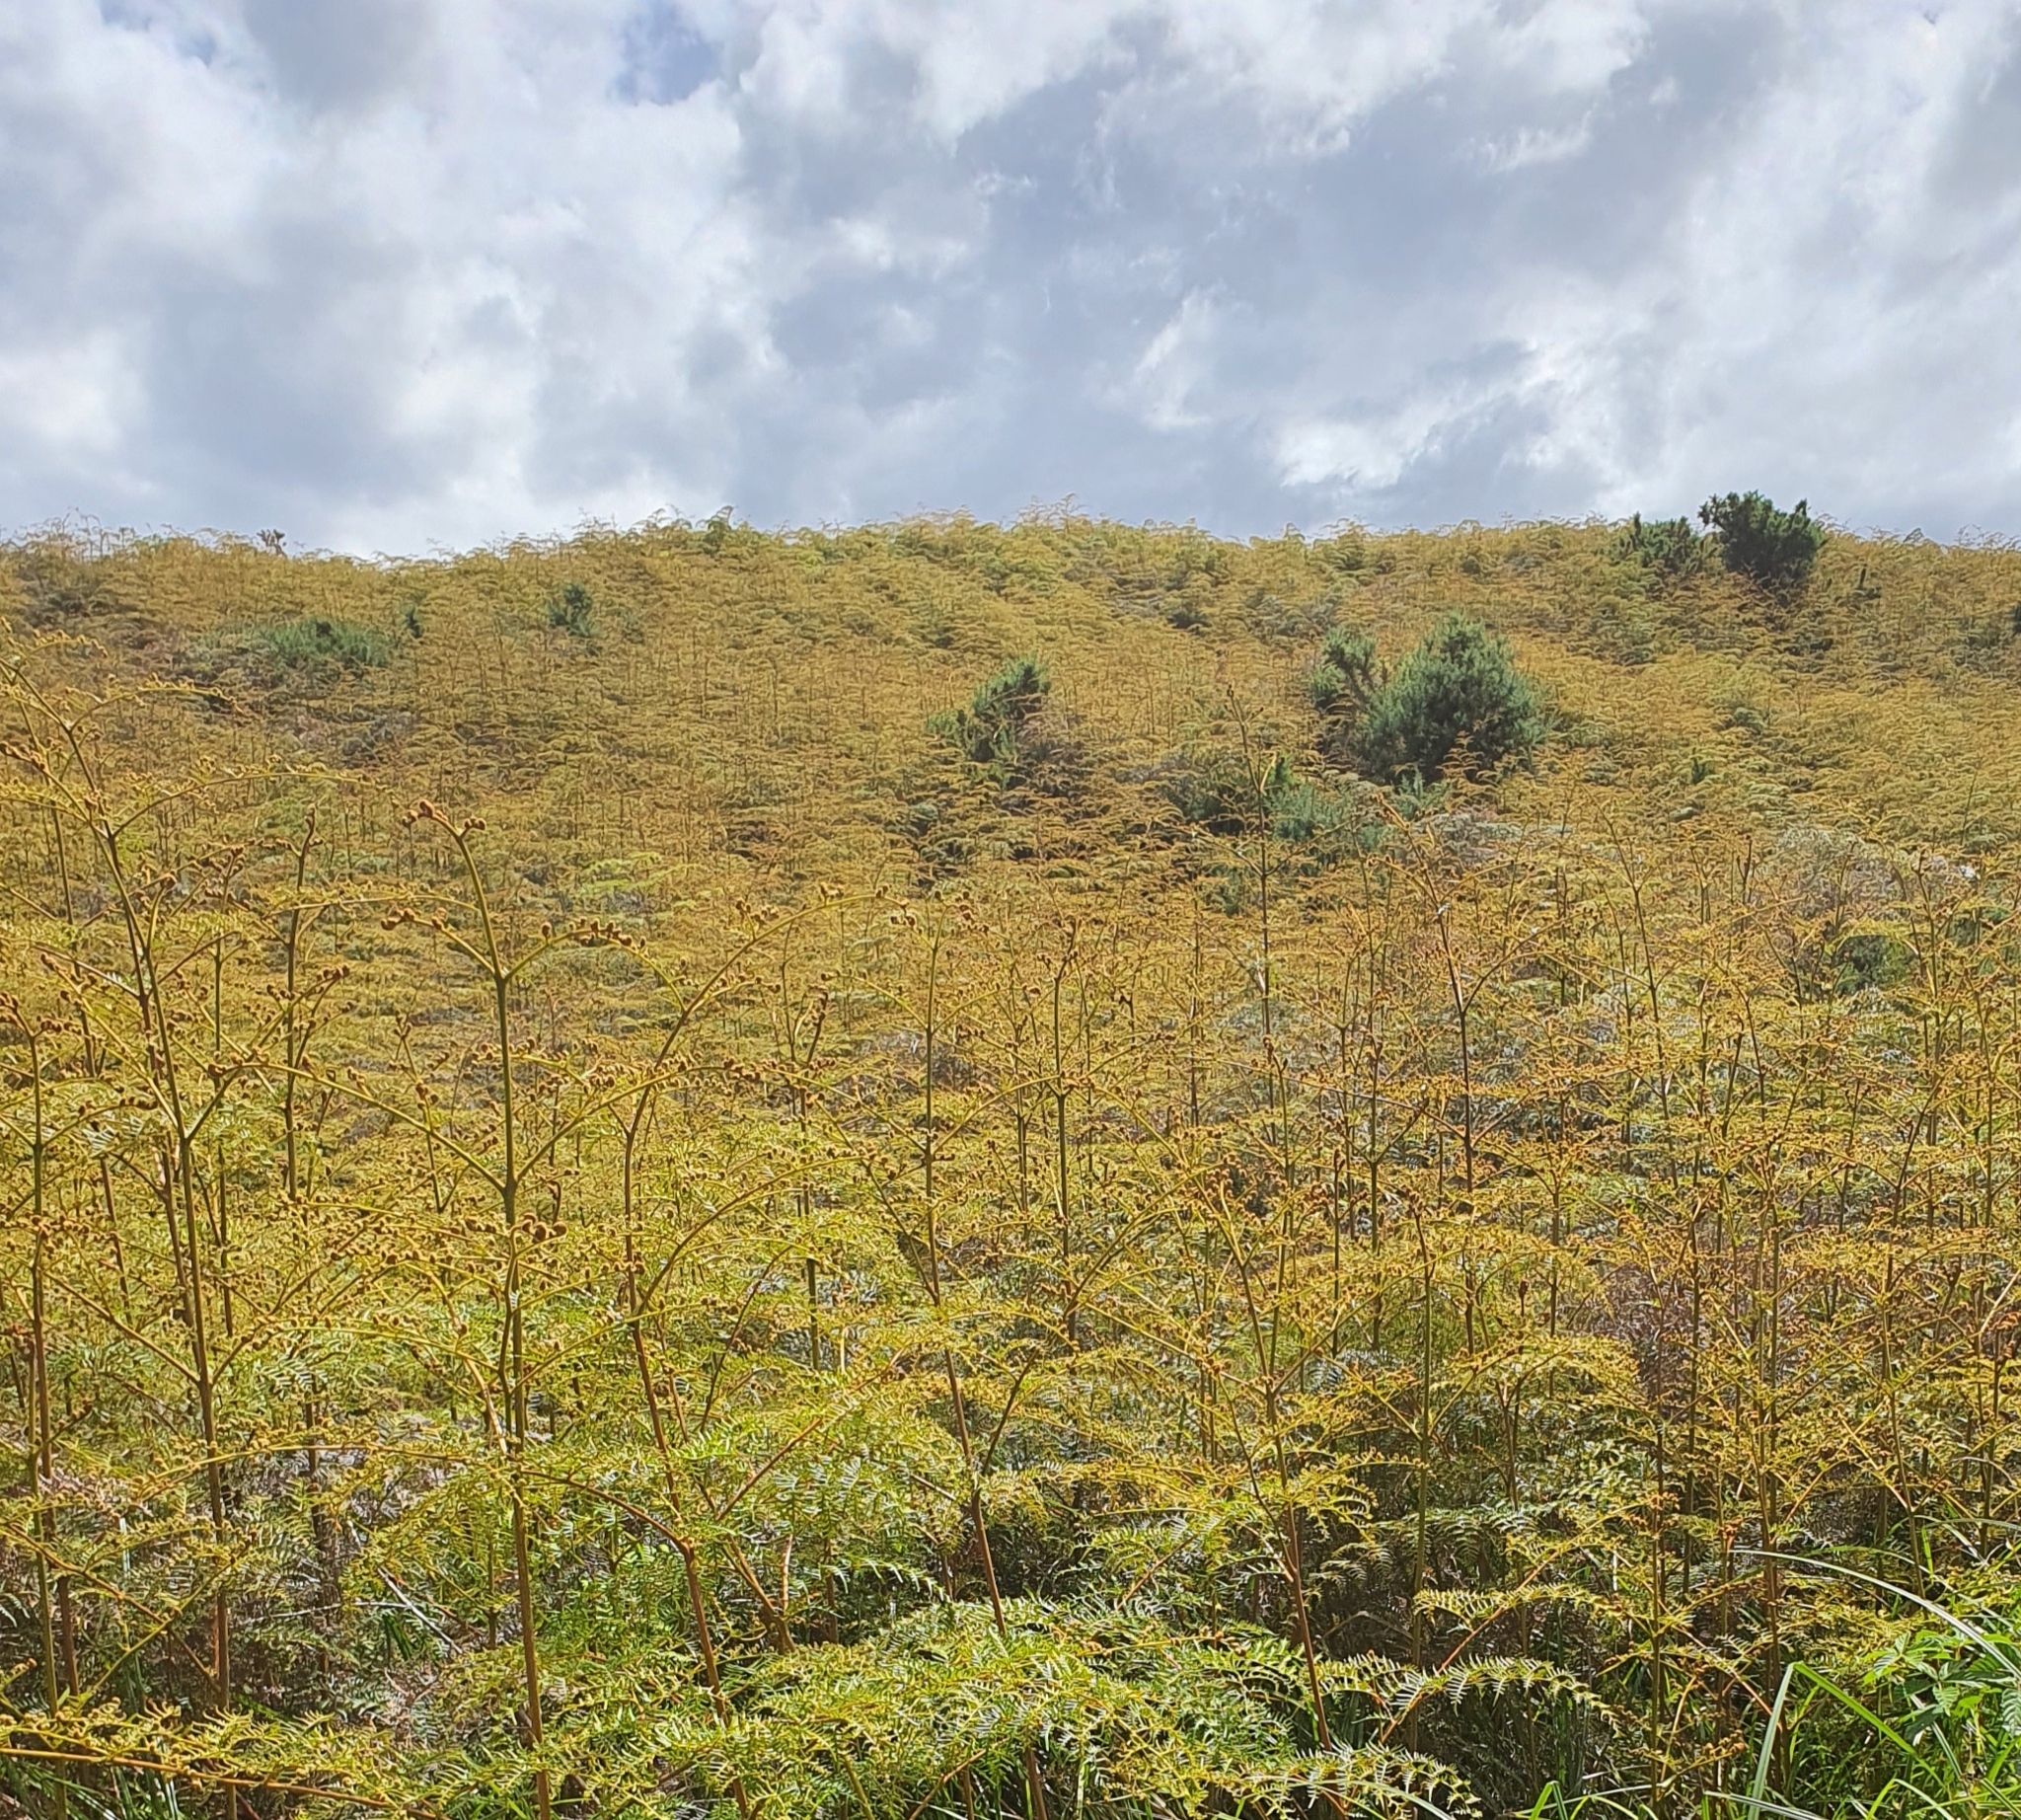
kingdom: Plantae
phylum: Tracheophyta
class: Polypodiopsida
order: Polypodiales
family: Dennstaedtiaceae
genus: Pteridium
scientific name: Pteridium esculentum
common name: Bracken fern
